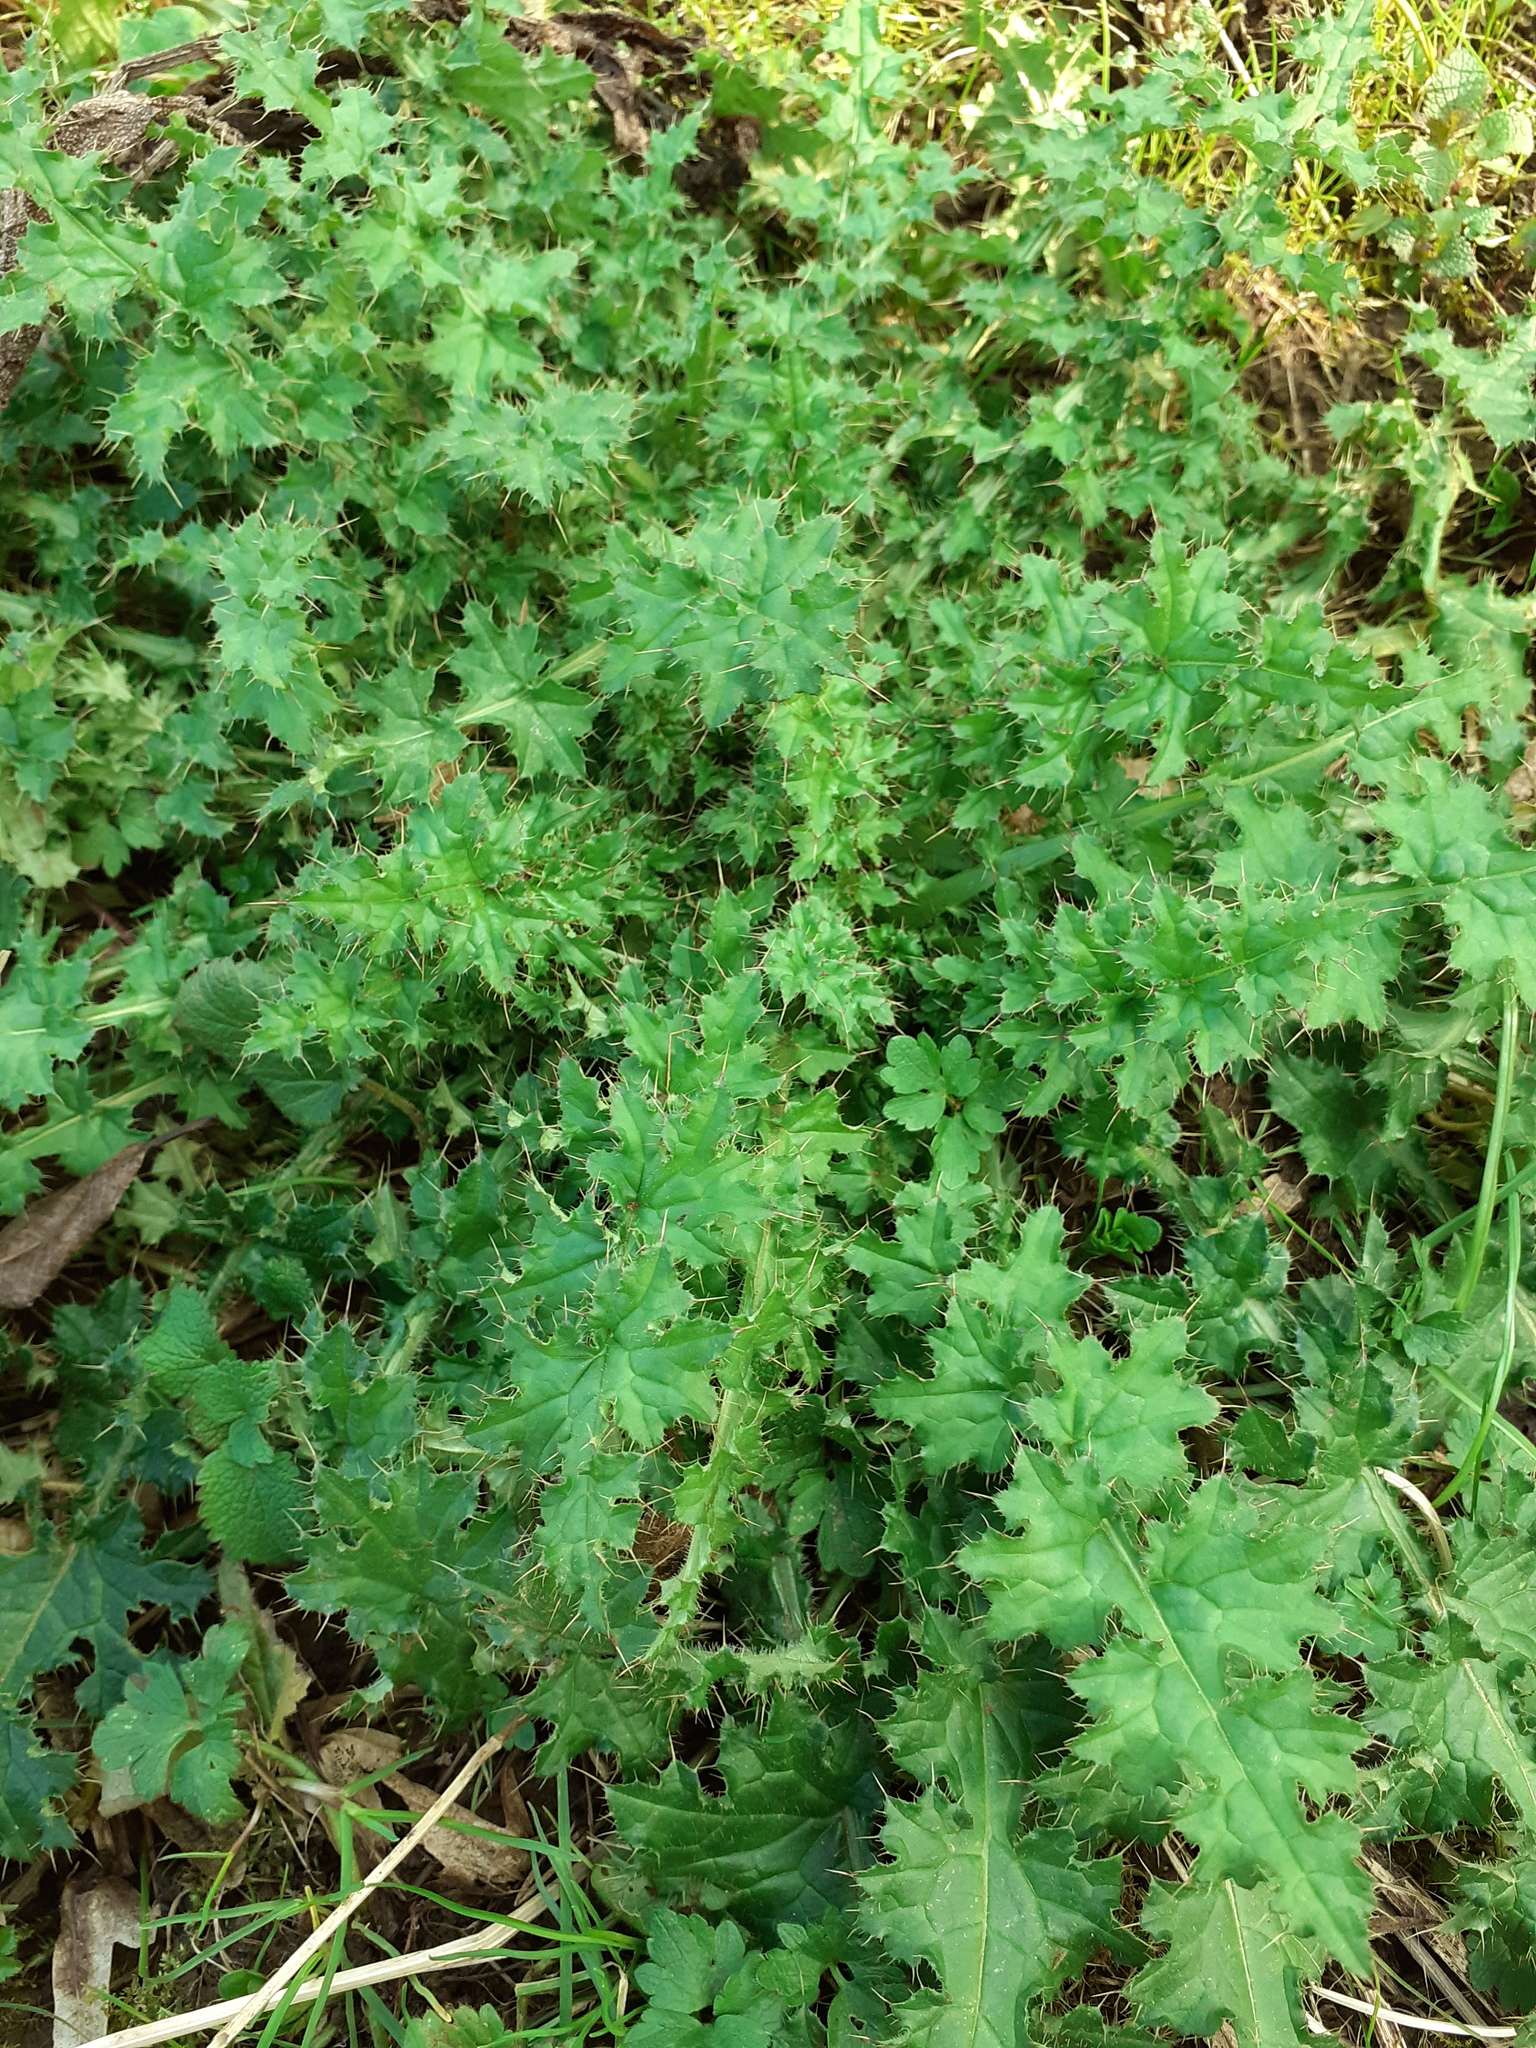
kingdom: Plantae
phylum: Tracheophyta
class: Magnoliopsida
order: Asterales
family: Asteraceae
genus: Carduus
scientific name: Carduus crispus
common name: Welted thistle
